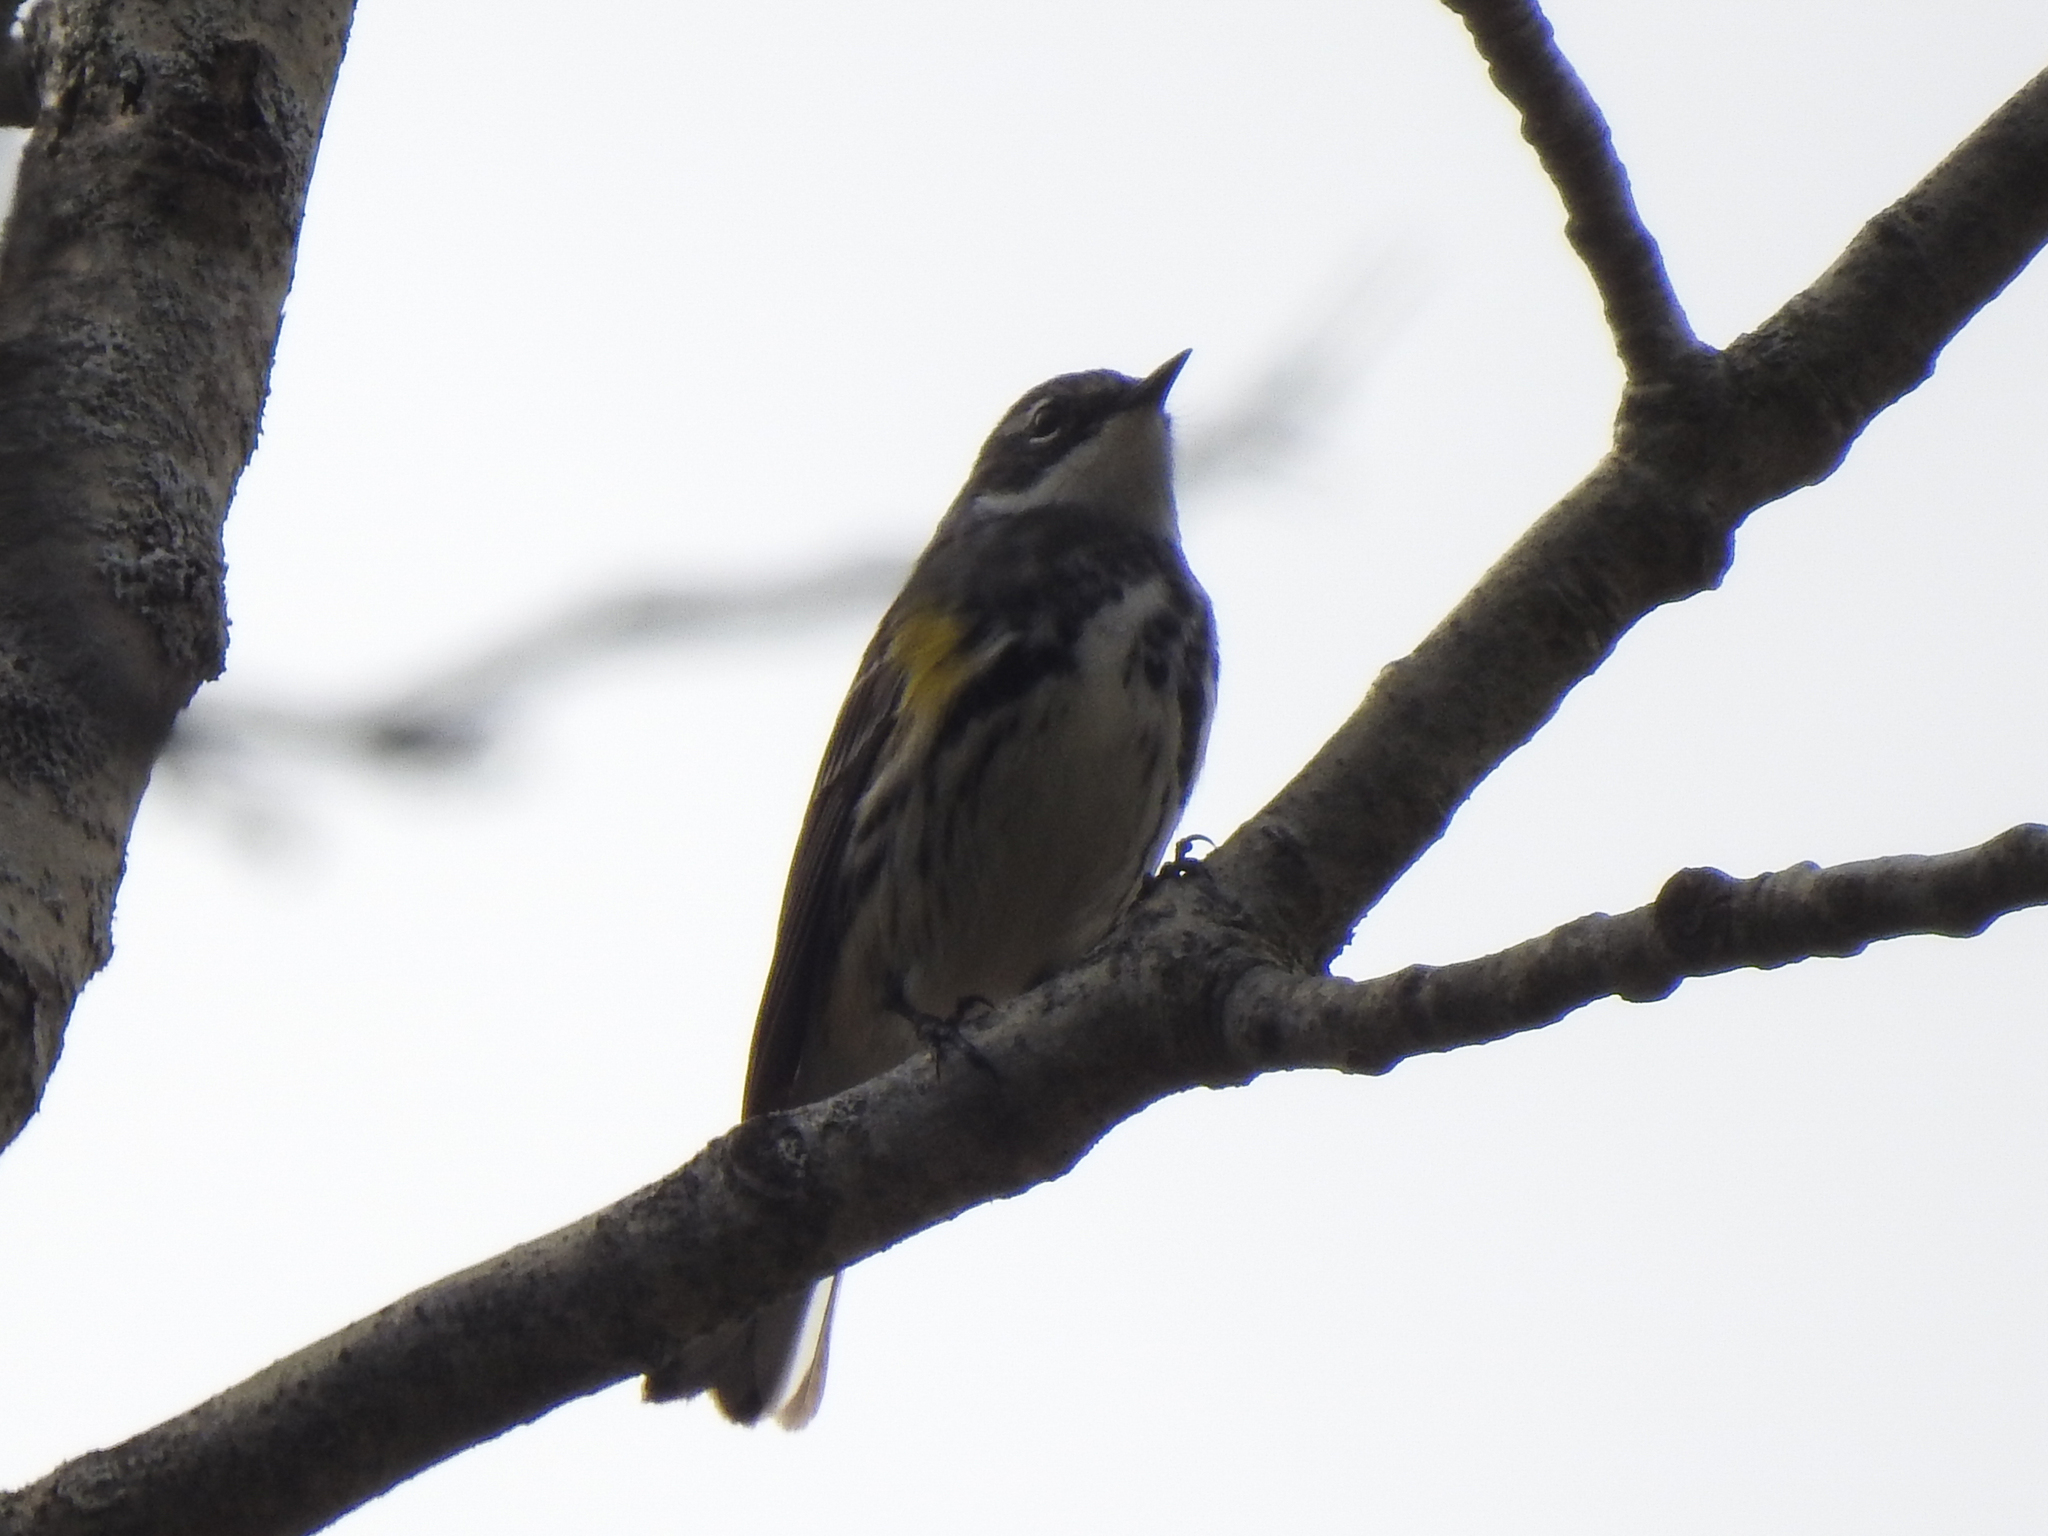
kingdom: Animalia
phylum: Chordata
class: Aves
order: Passeriformes
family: Parulidae
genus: Setophaga
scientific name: Setophaga coronata
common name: Myrtle warbler
